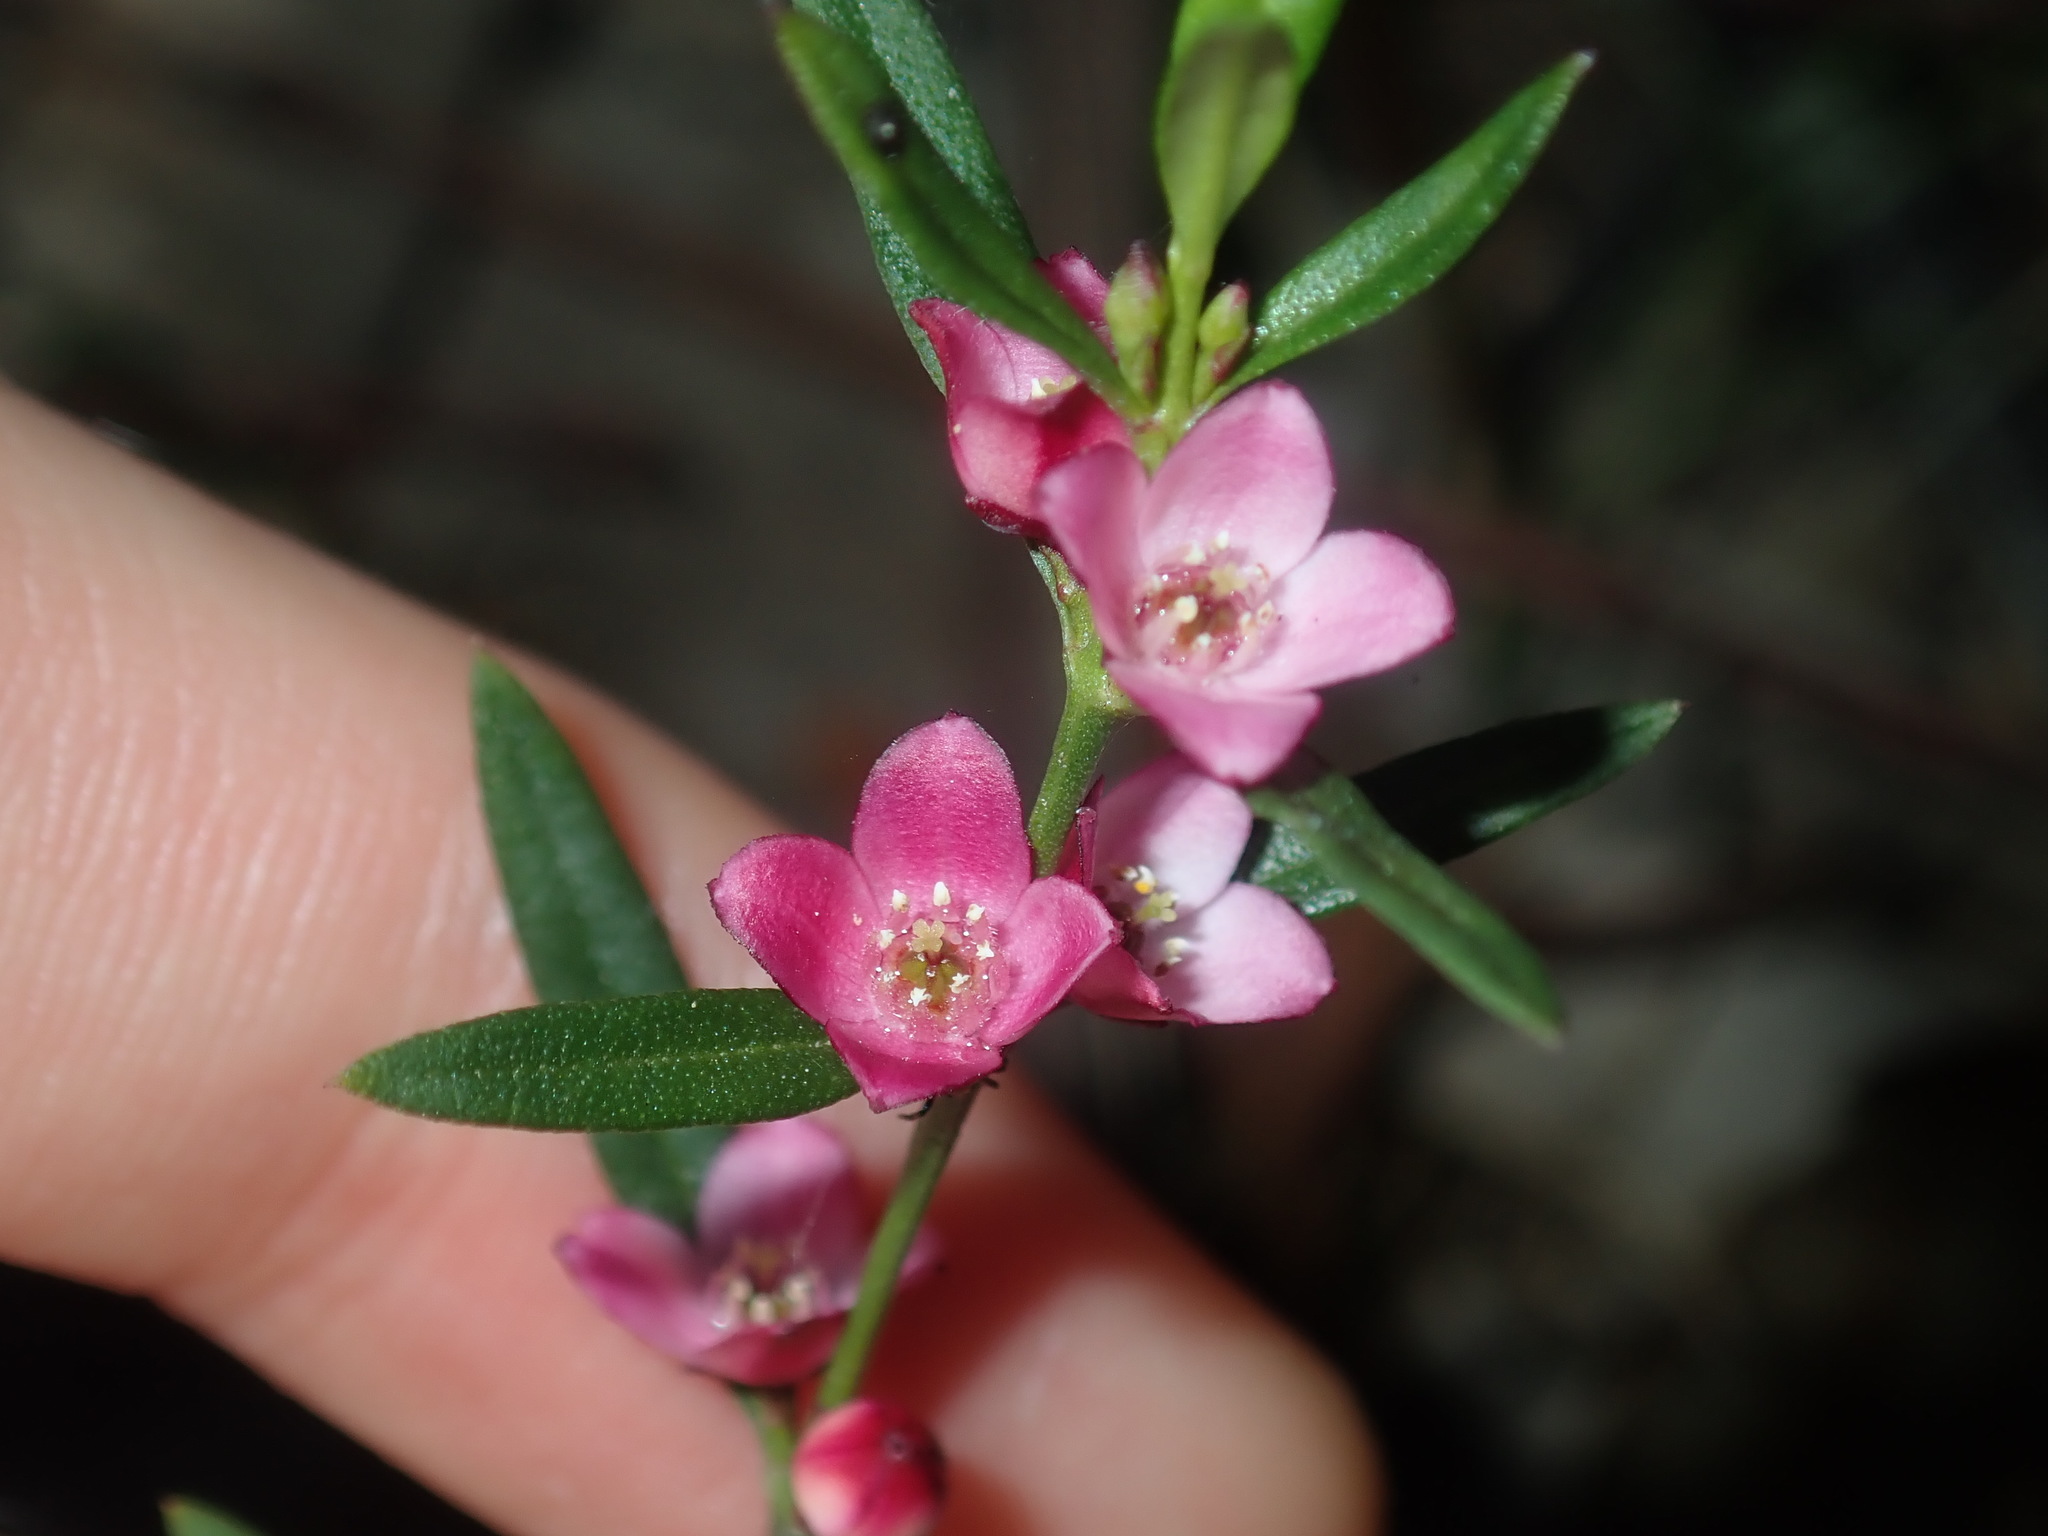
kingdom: Plantae
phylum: Tracheophyta
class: Magnoliopsida
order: Sapindales
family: Rutaceae
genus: Cyanothamnus
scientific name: Cyanothamnus polygalifolius
